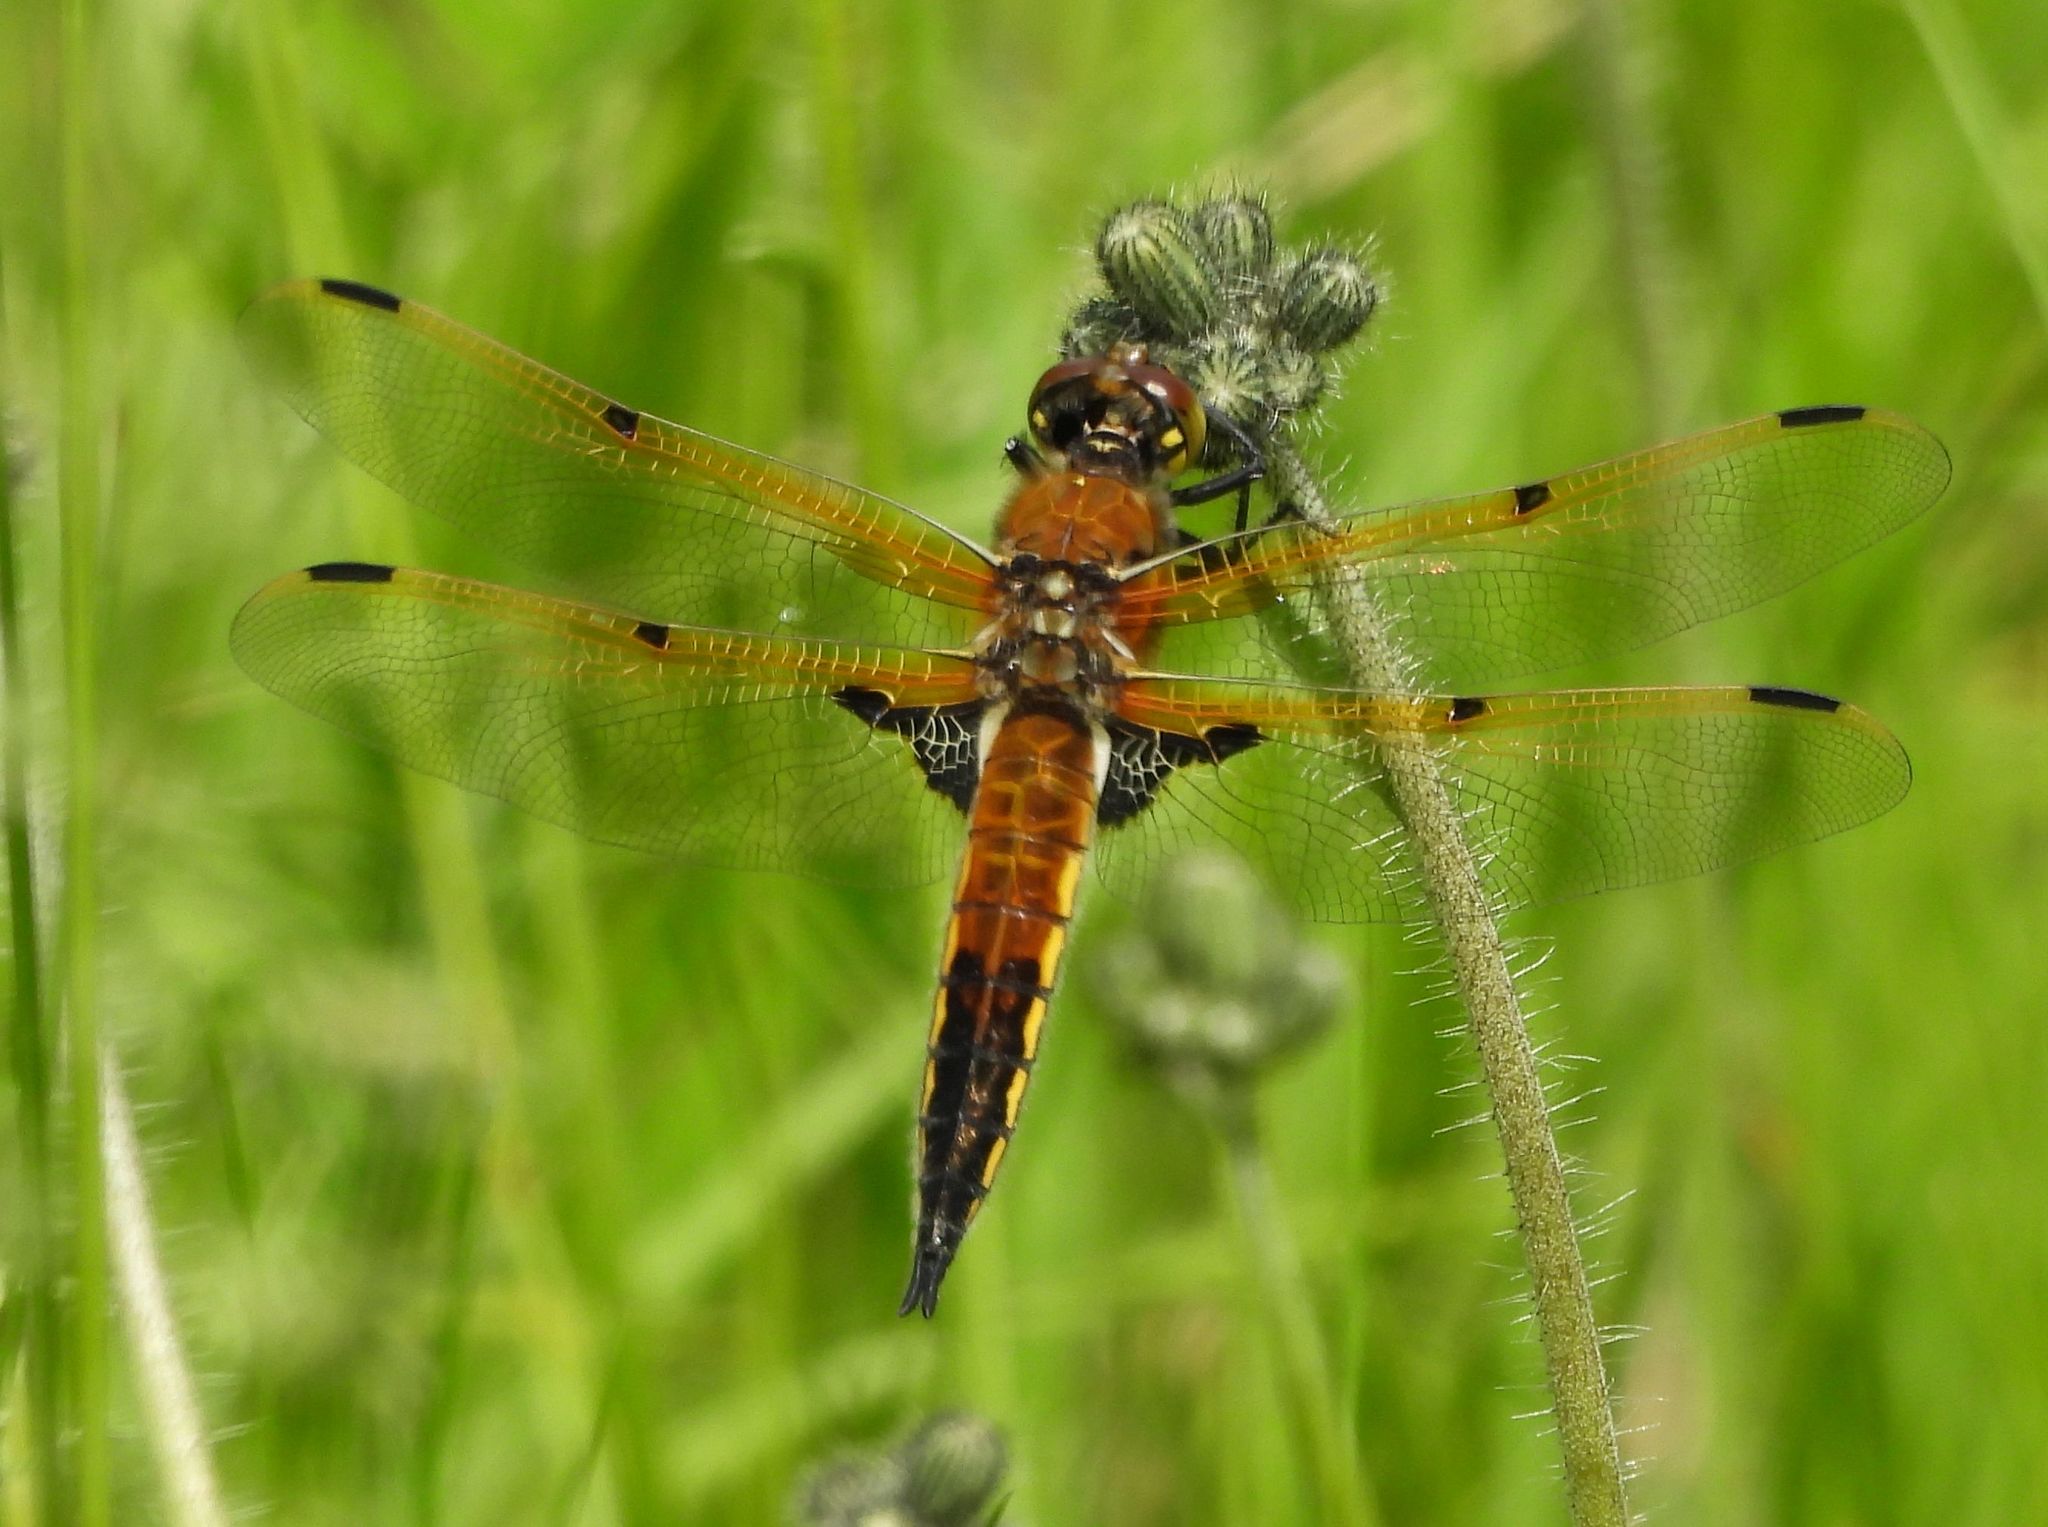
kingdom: Animalia
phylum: Arthropoda
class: Insecta
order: Odonata
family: Libellulidae
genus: Libellula
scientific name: Libellula quadrimaculata
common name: Four-spotted chaser
